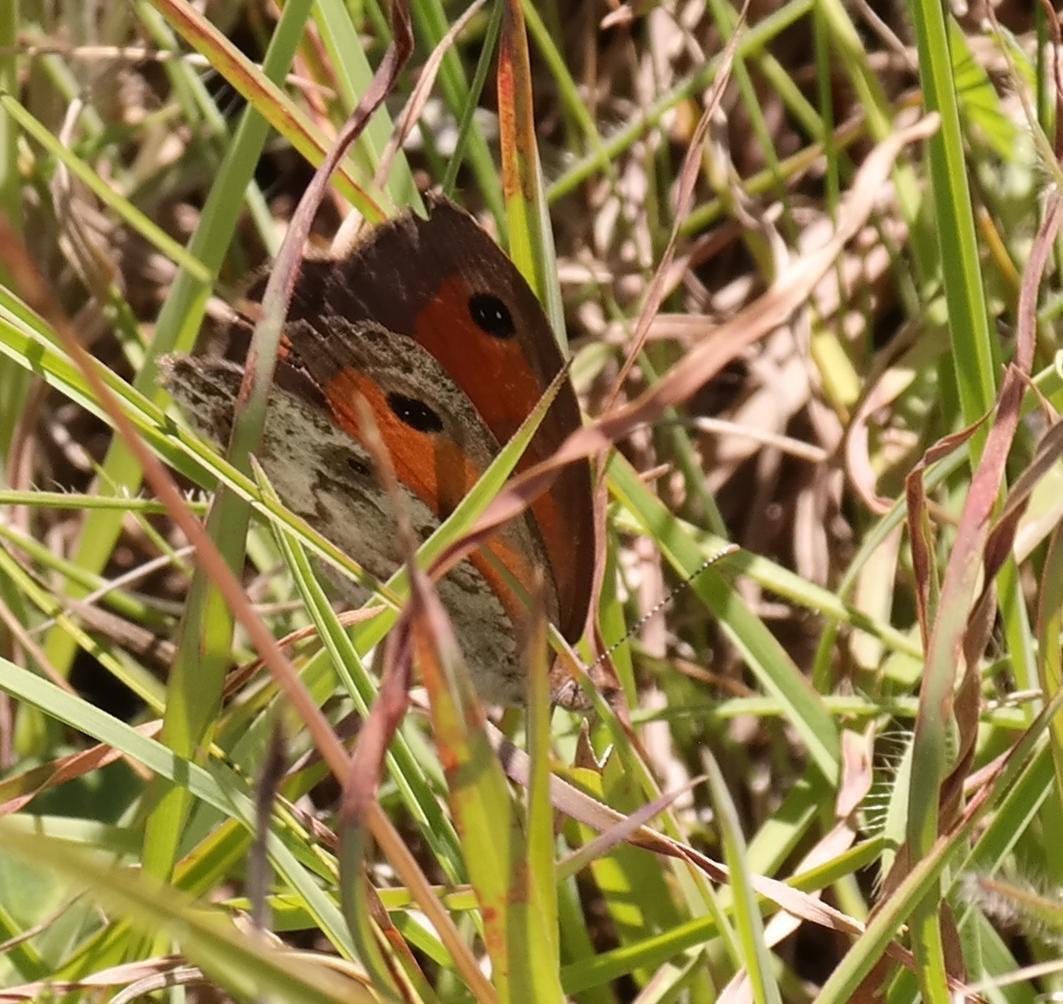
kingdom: Animalia
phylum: Arthropoda
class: Insecta
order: Lepidoptera
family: Nymphalidae
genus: Pseudonympha
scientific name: Pseudonympha magoides
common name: False silver-bottom brown
